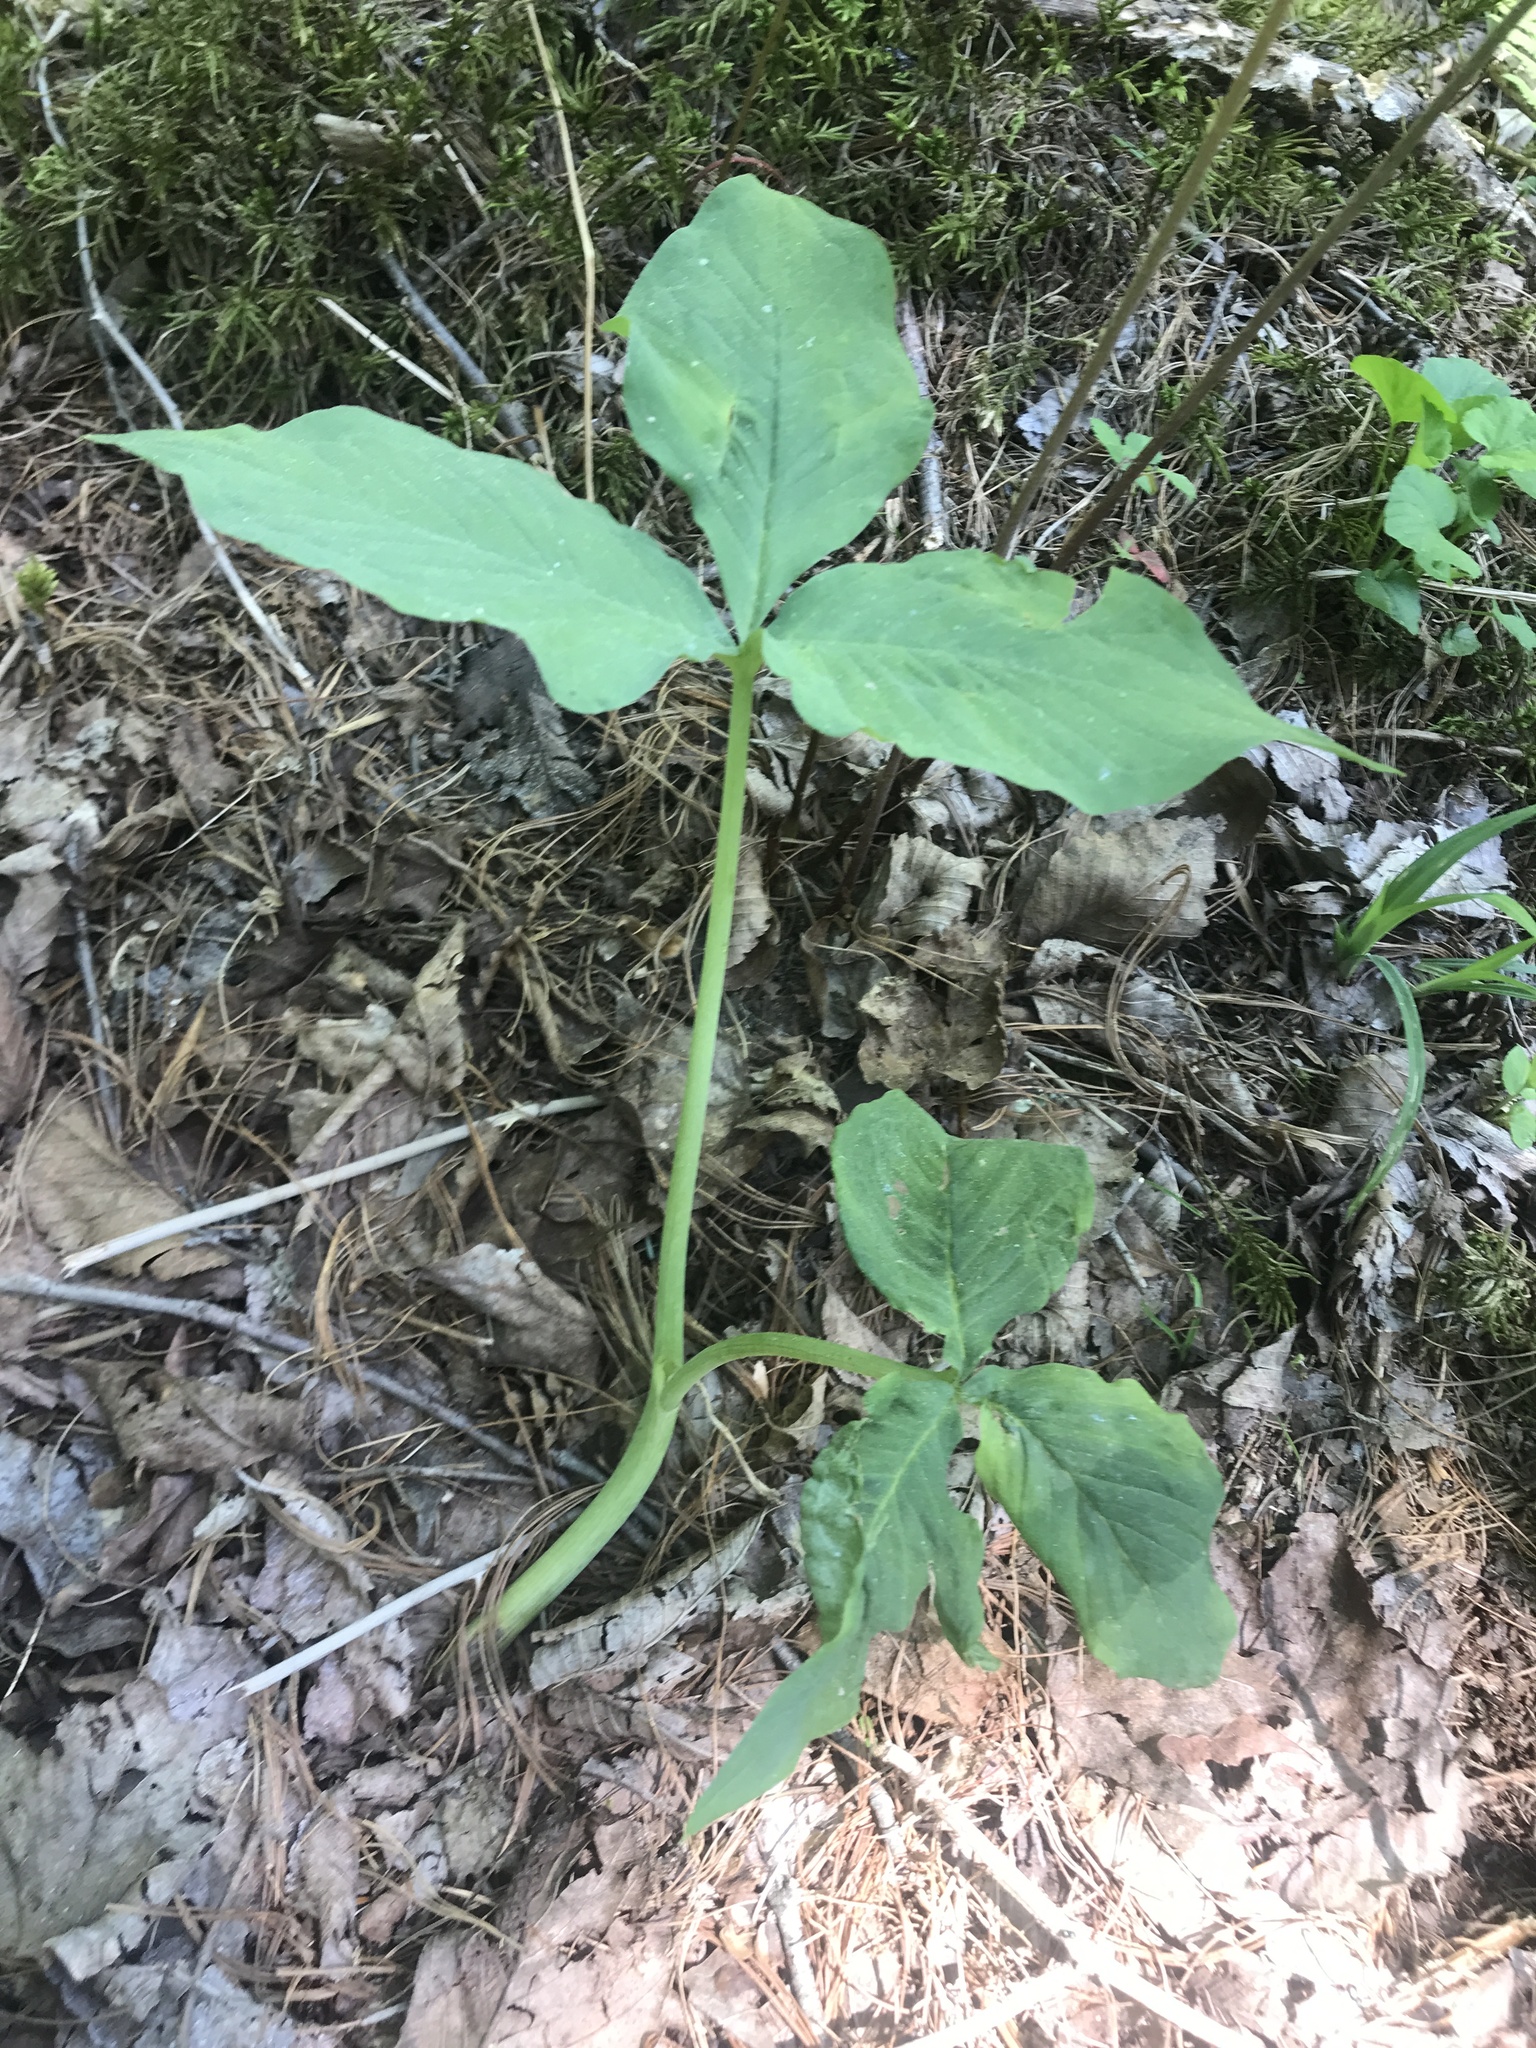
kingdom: Plantae
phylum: Tracheophyta
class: Liliopsida
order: Alismatales
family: Araceae
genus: Arisaema
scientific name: Arisaema triphyllum
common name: Jack-in-the-pulpit
